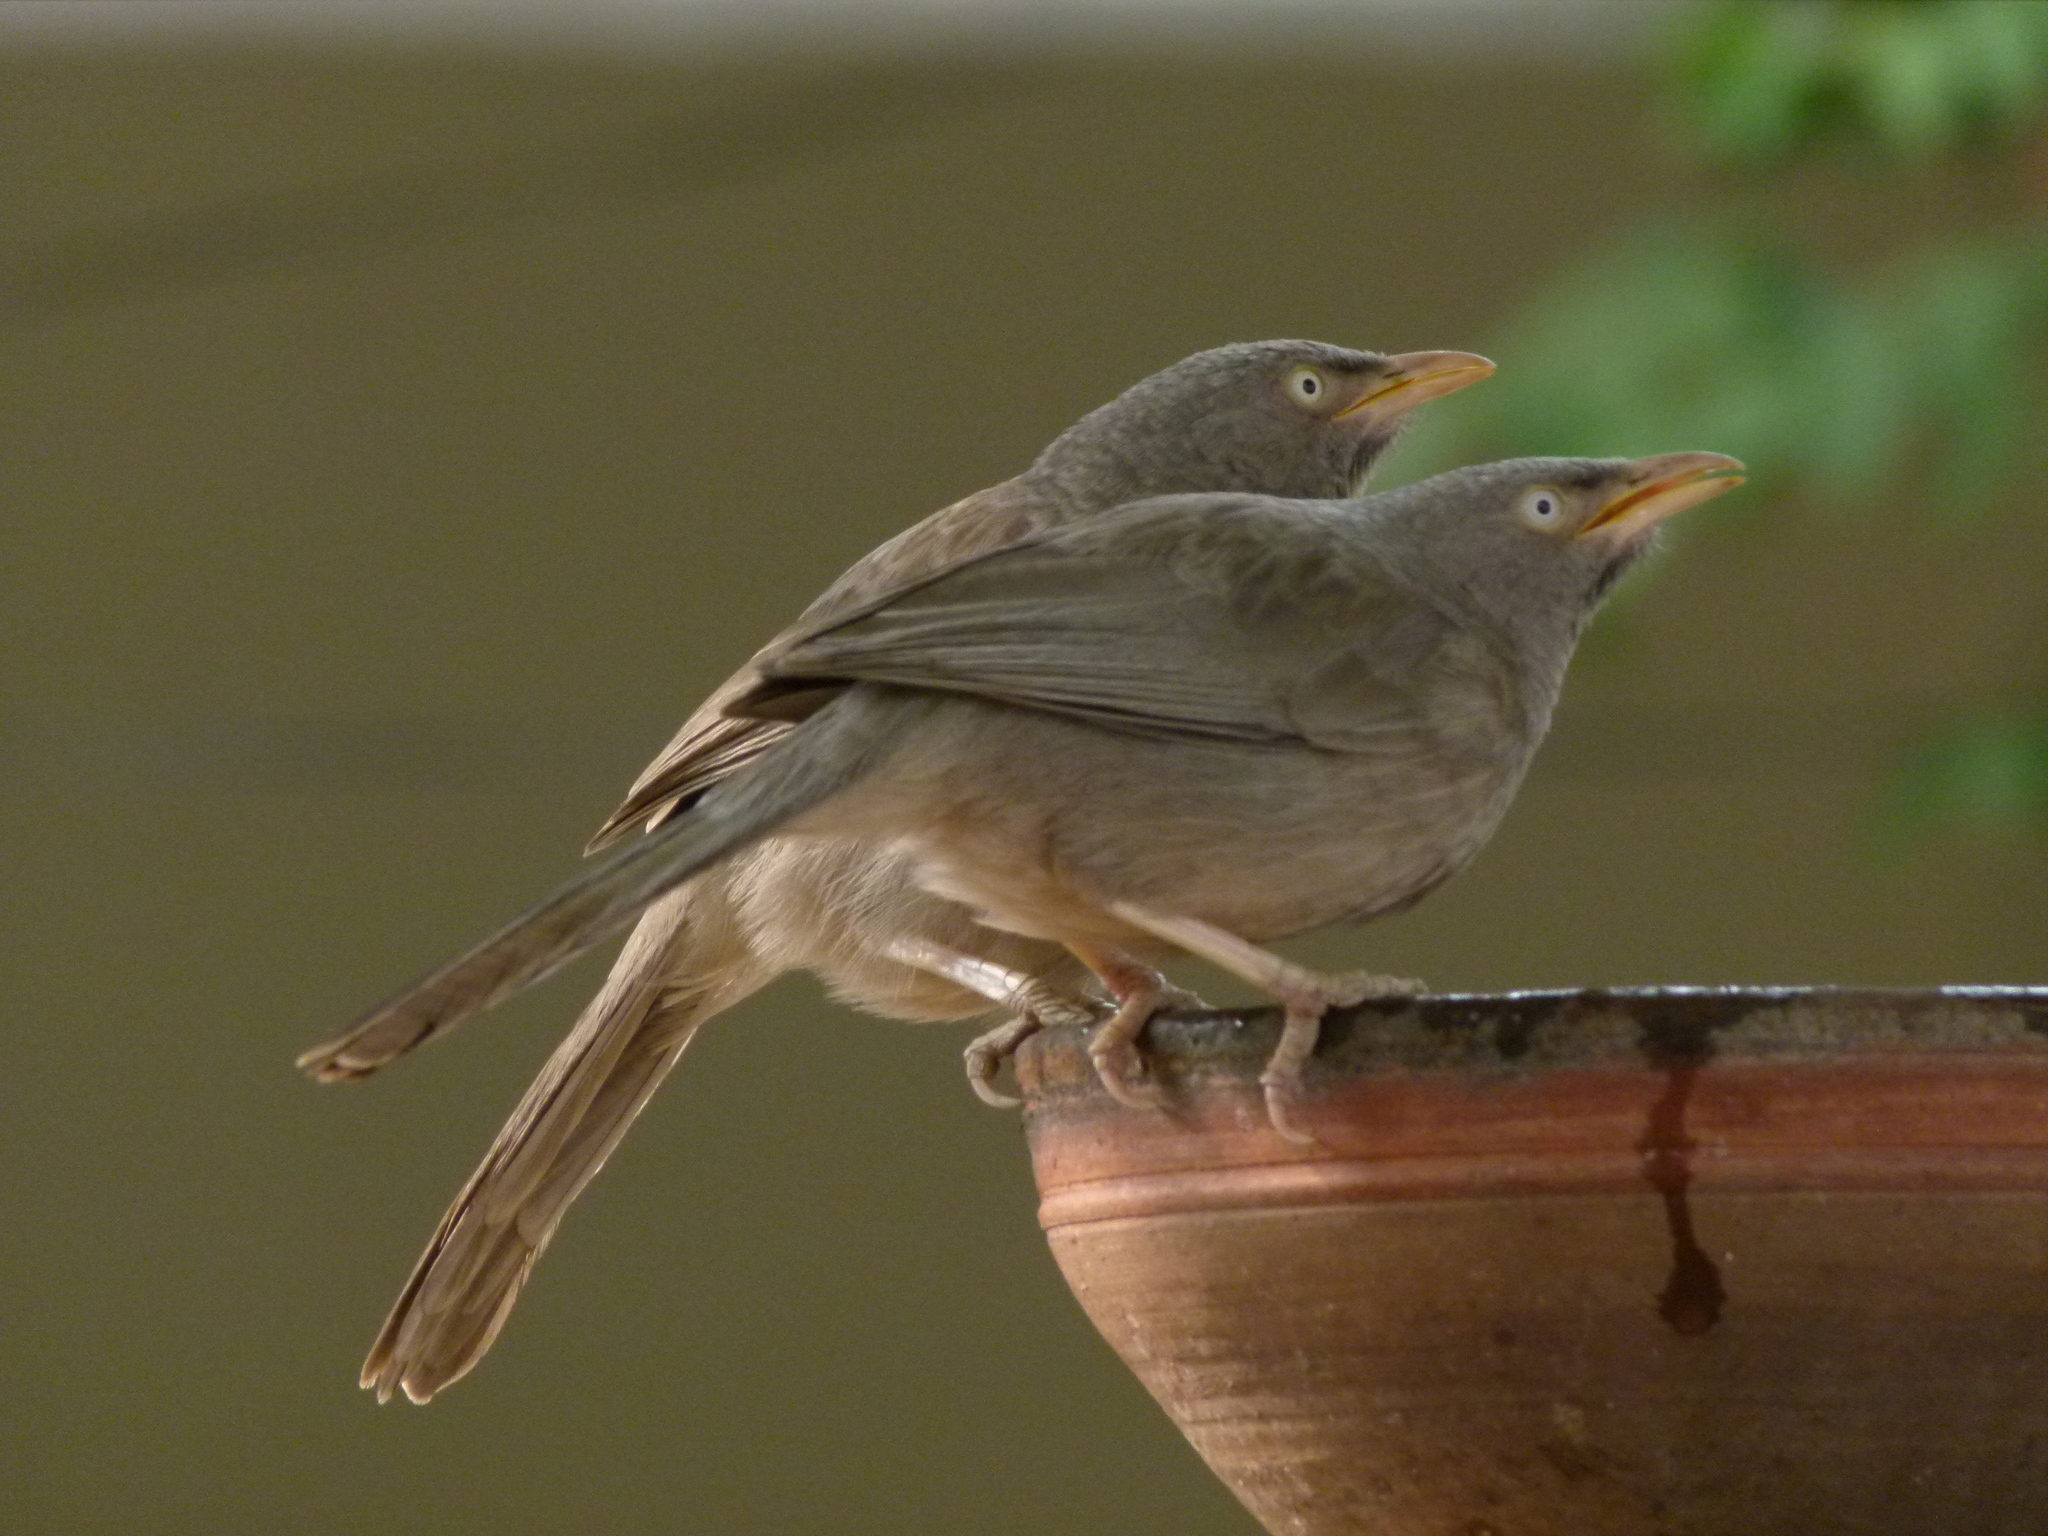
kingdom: Animalia
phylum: Chordata
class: Aves
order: Passeriformes
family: Leiothrichidae
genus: Turdoides
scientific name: Turdoides striata
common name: Jungle babbler
